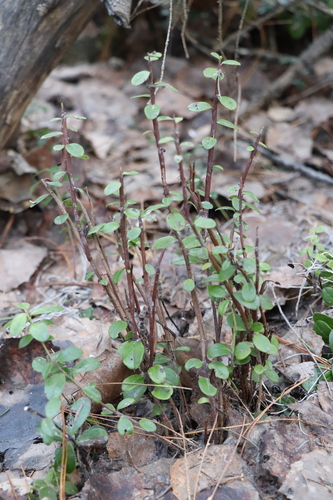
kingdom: Fungi
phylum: Basidiomycota
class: Pucciniomycetes
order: Pucciniales
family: Pucciniastraceae
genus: Calyptospora
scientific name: Calyptospora columnaris
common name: Huckleberry broom rust fungus
